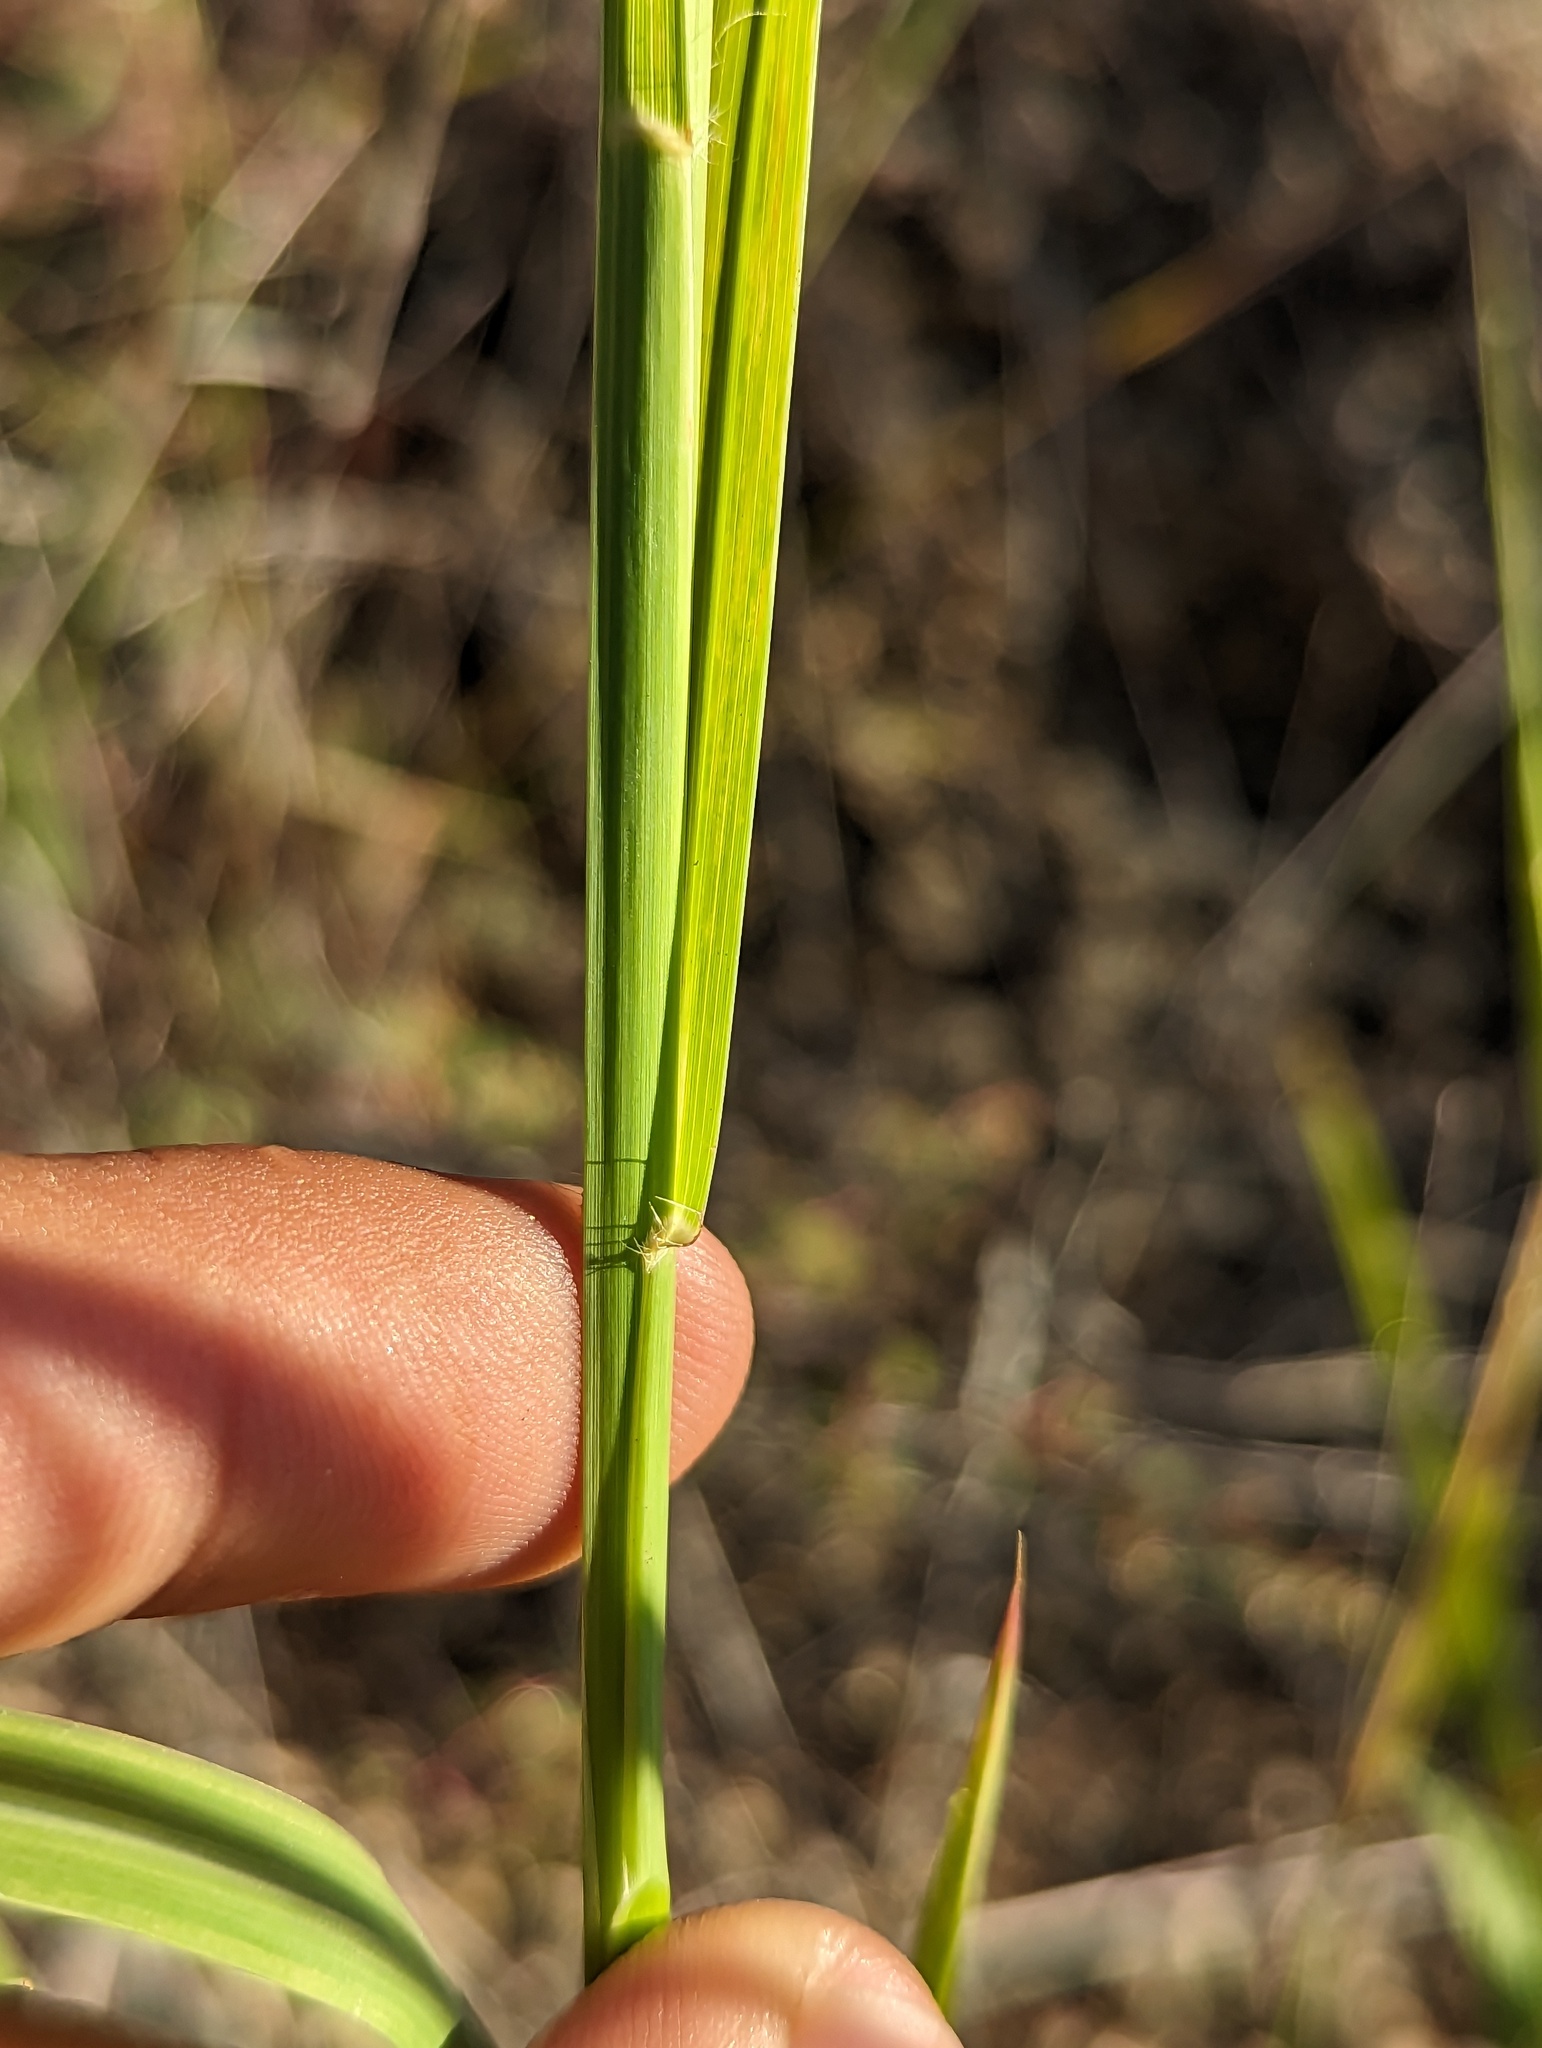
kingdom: Plantae
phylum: Tracheophyta
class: Liliopsida
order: Poales
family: Poaceae
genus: Heteropogon
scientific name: Heteropogon contortus
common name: Tanglehead
